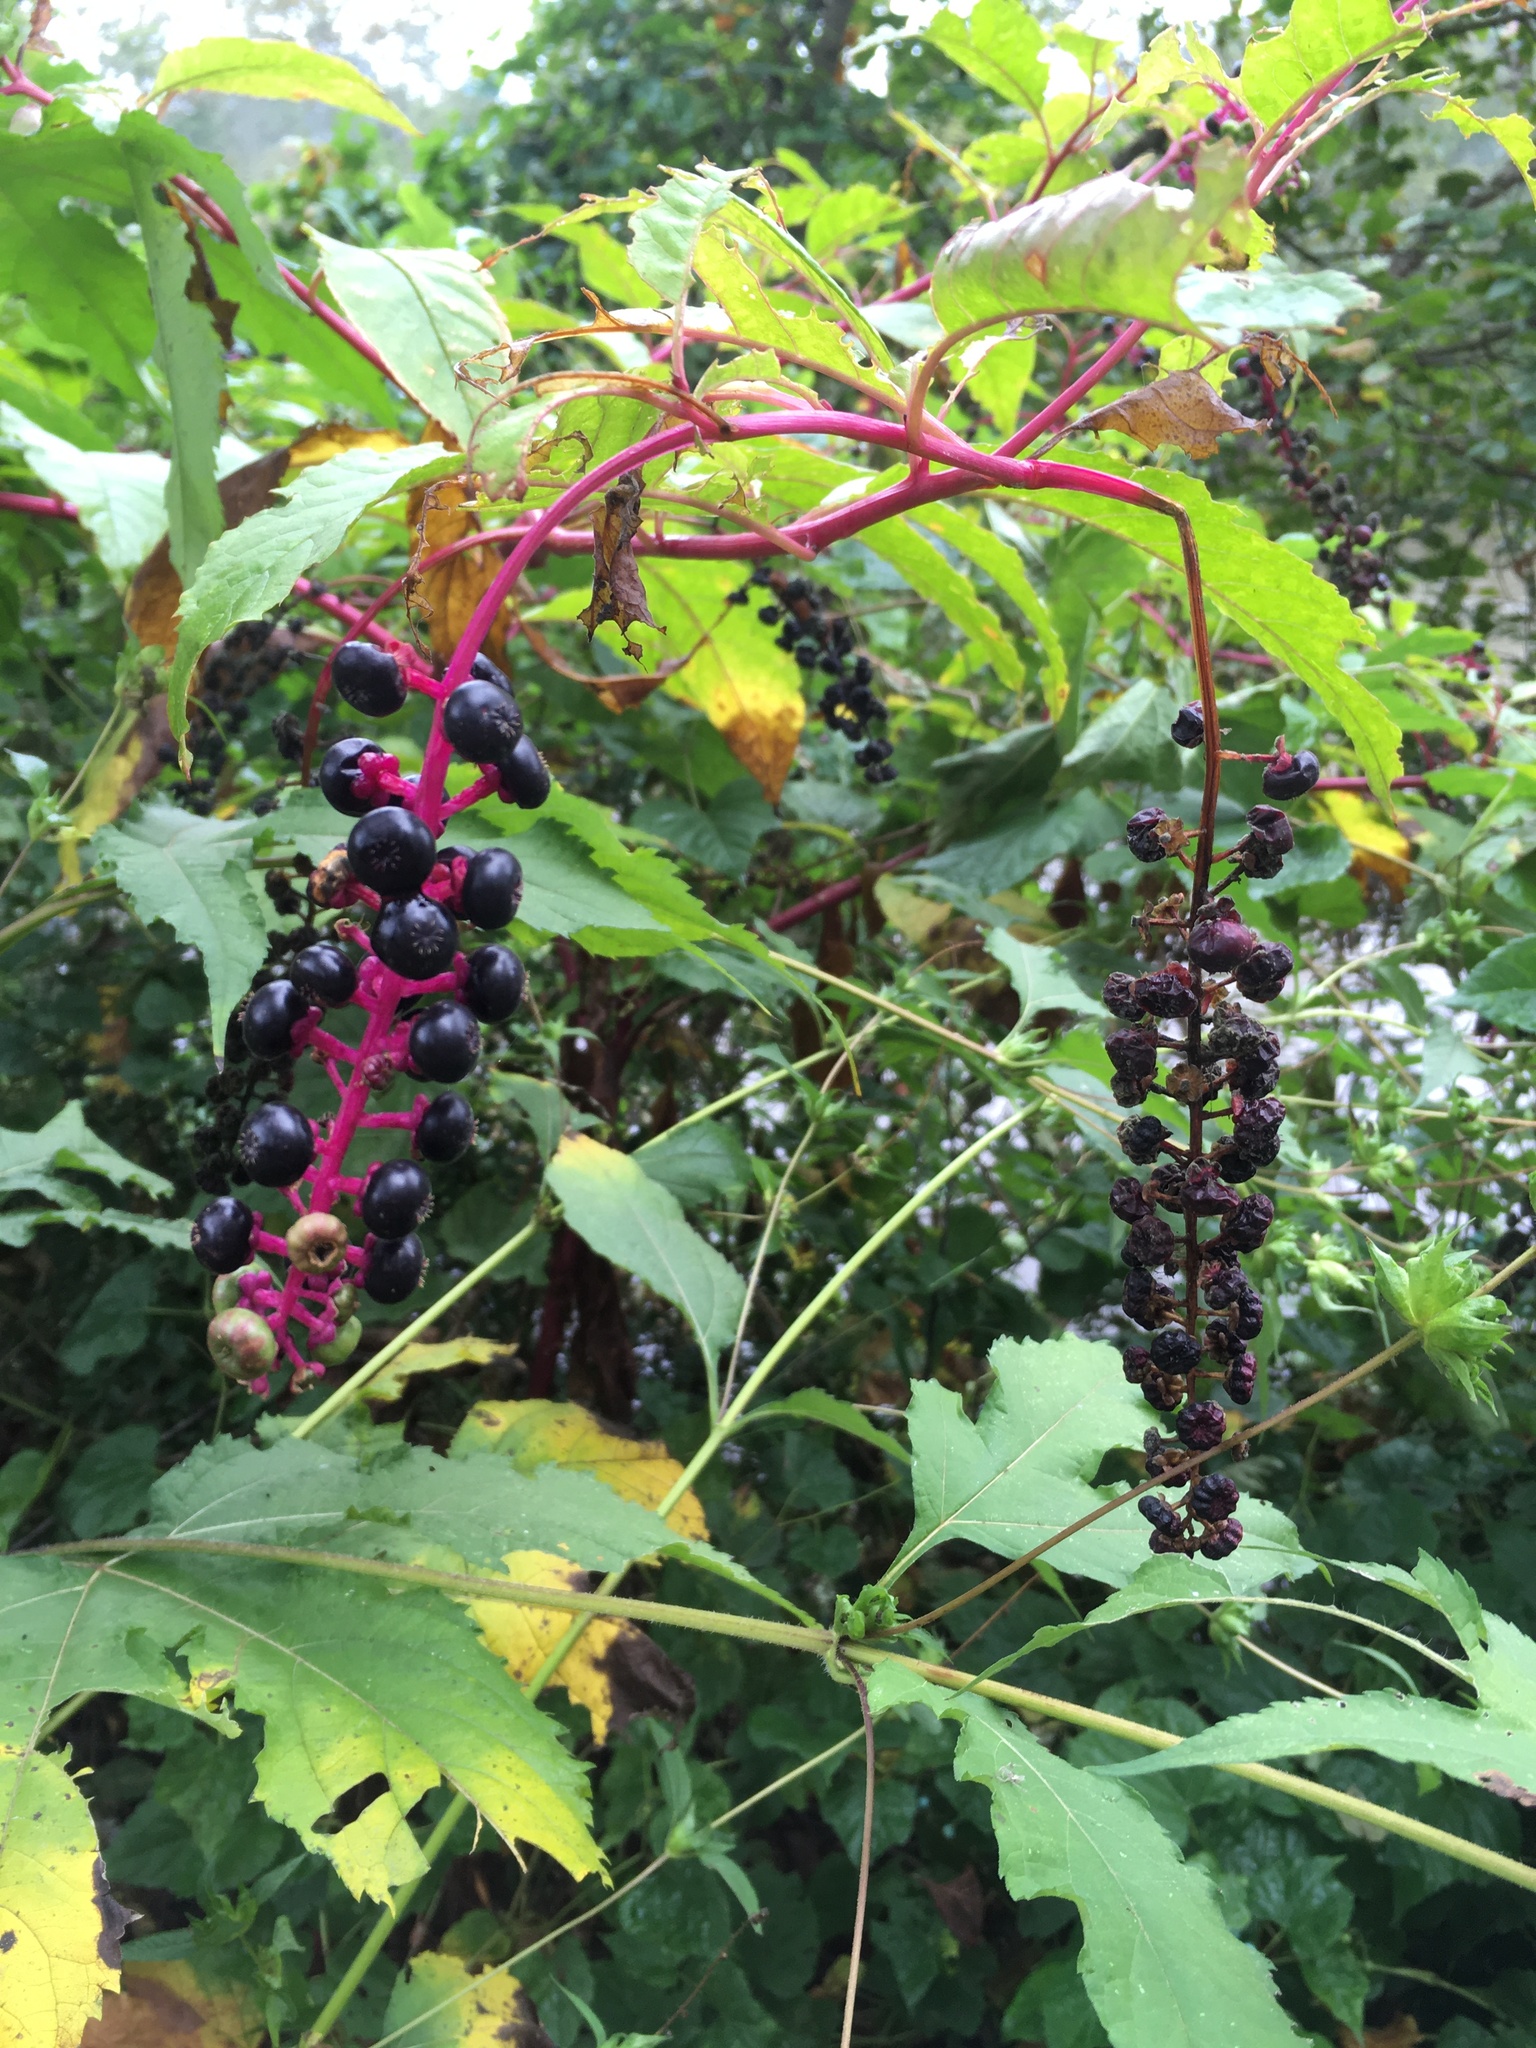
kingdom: Plantae
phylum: Tracheophyta
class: Magnoliopsida
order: Caryophyllales
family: Phytolaccaceae
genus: Phytolacca
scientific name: Phytolacca americana
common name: American pokeweed
